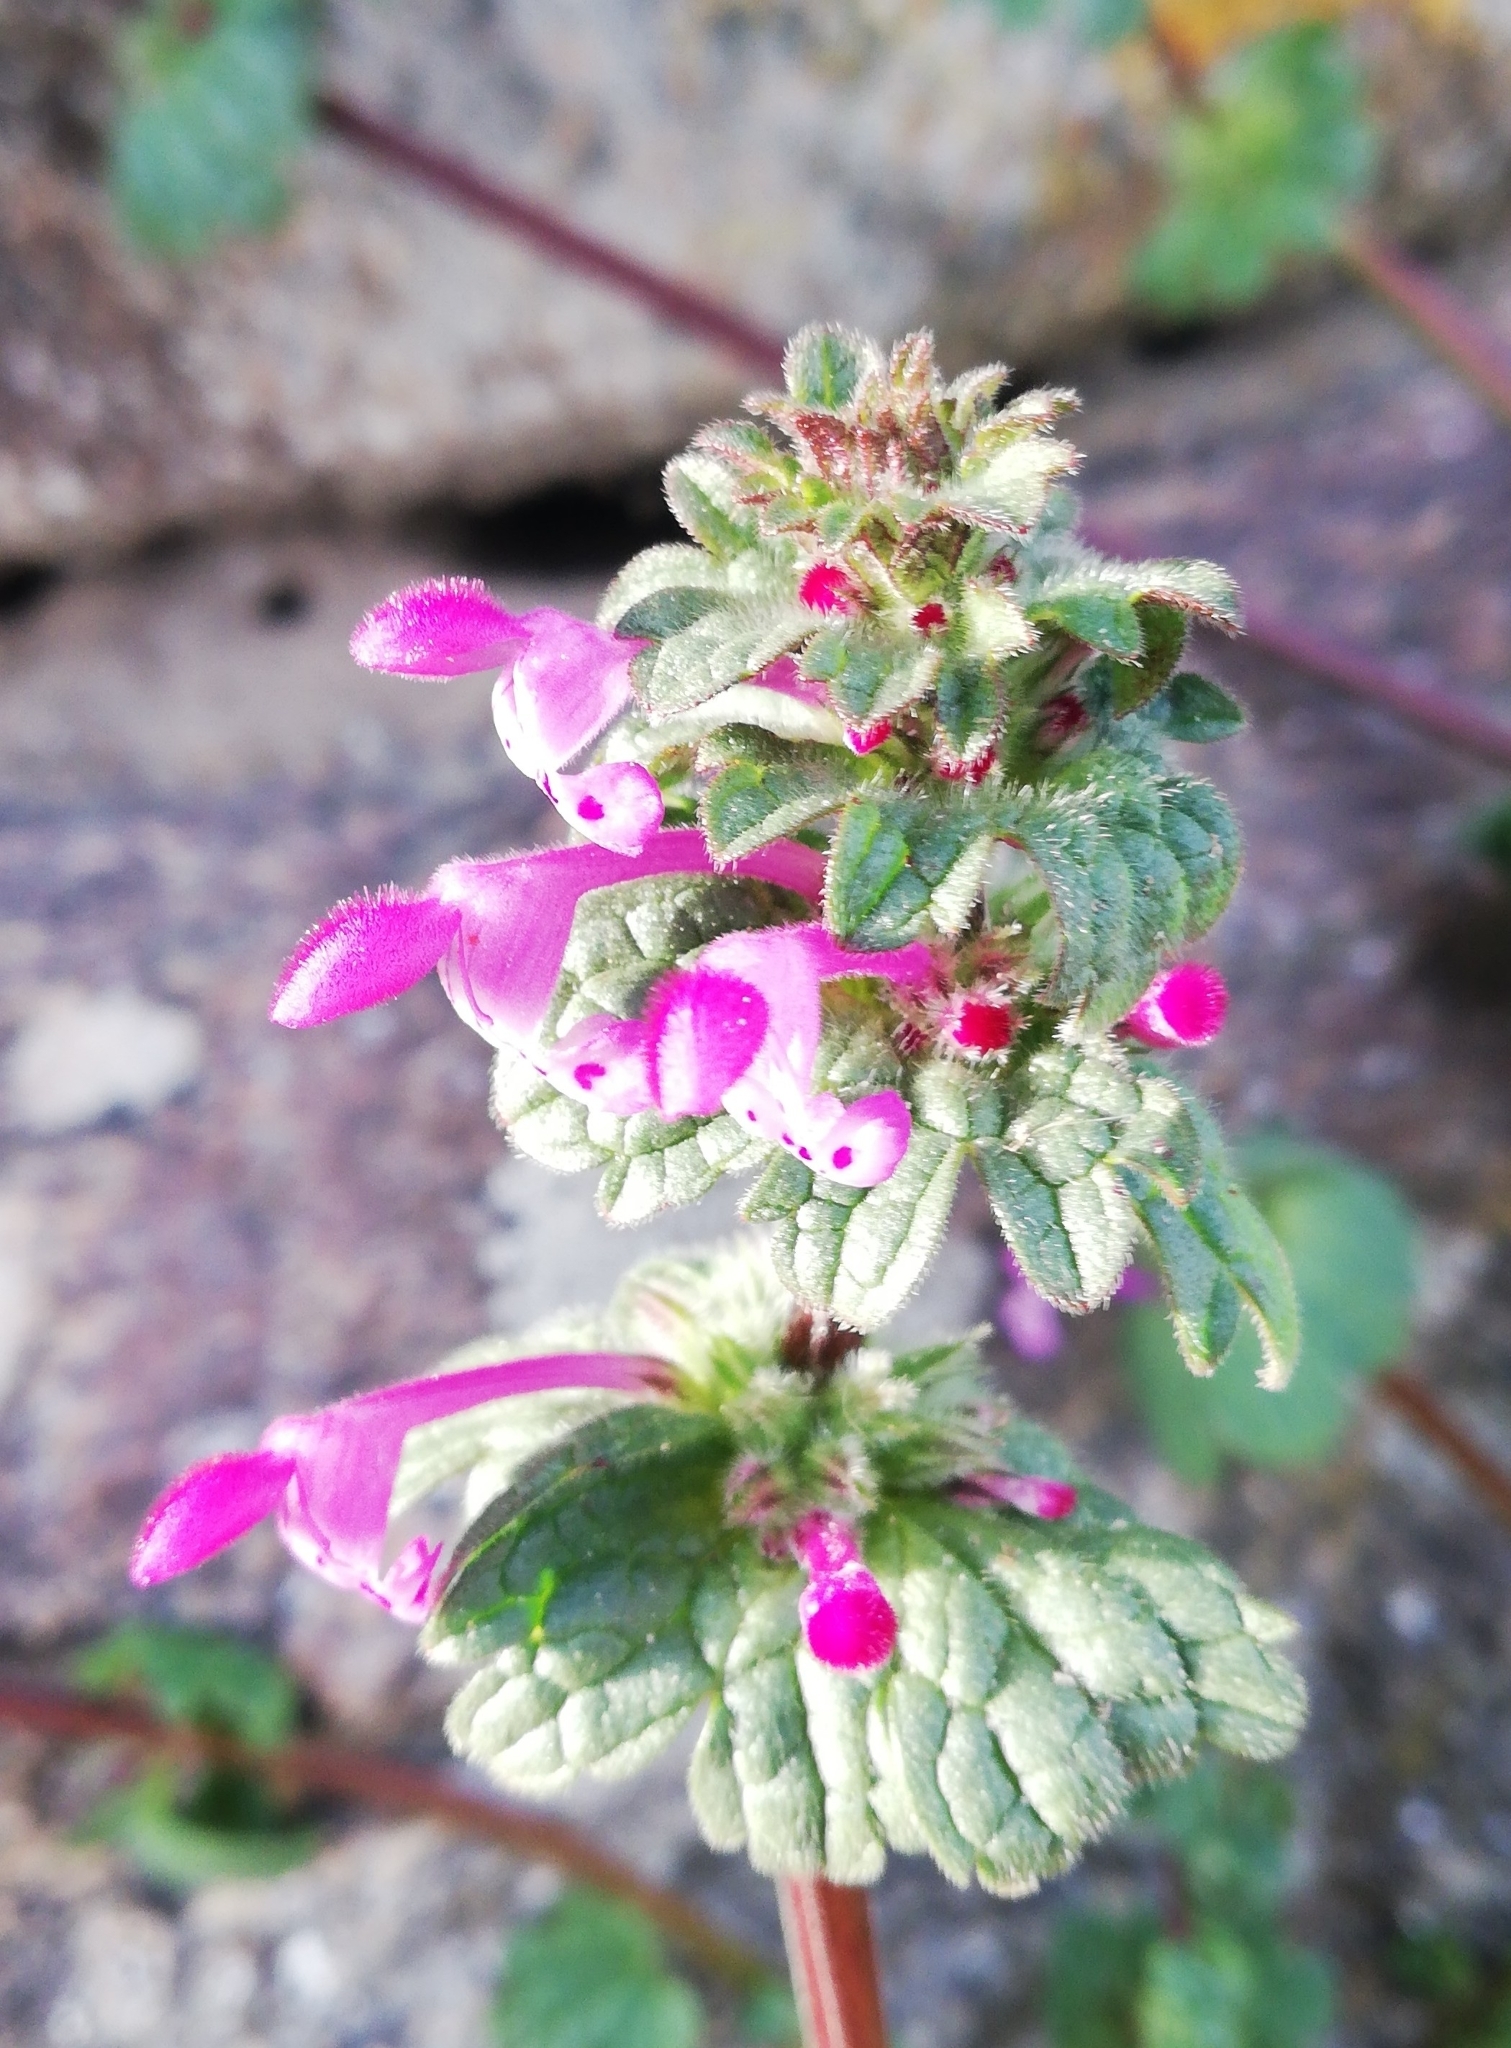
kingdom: Plantae
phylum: Tracheophyta
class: Magnoliopsida
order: Lamiales
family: Lamiaceae
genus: Lamium
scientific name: Lamium amplexicaule
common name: Henbit dead-nettle
